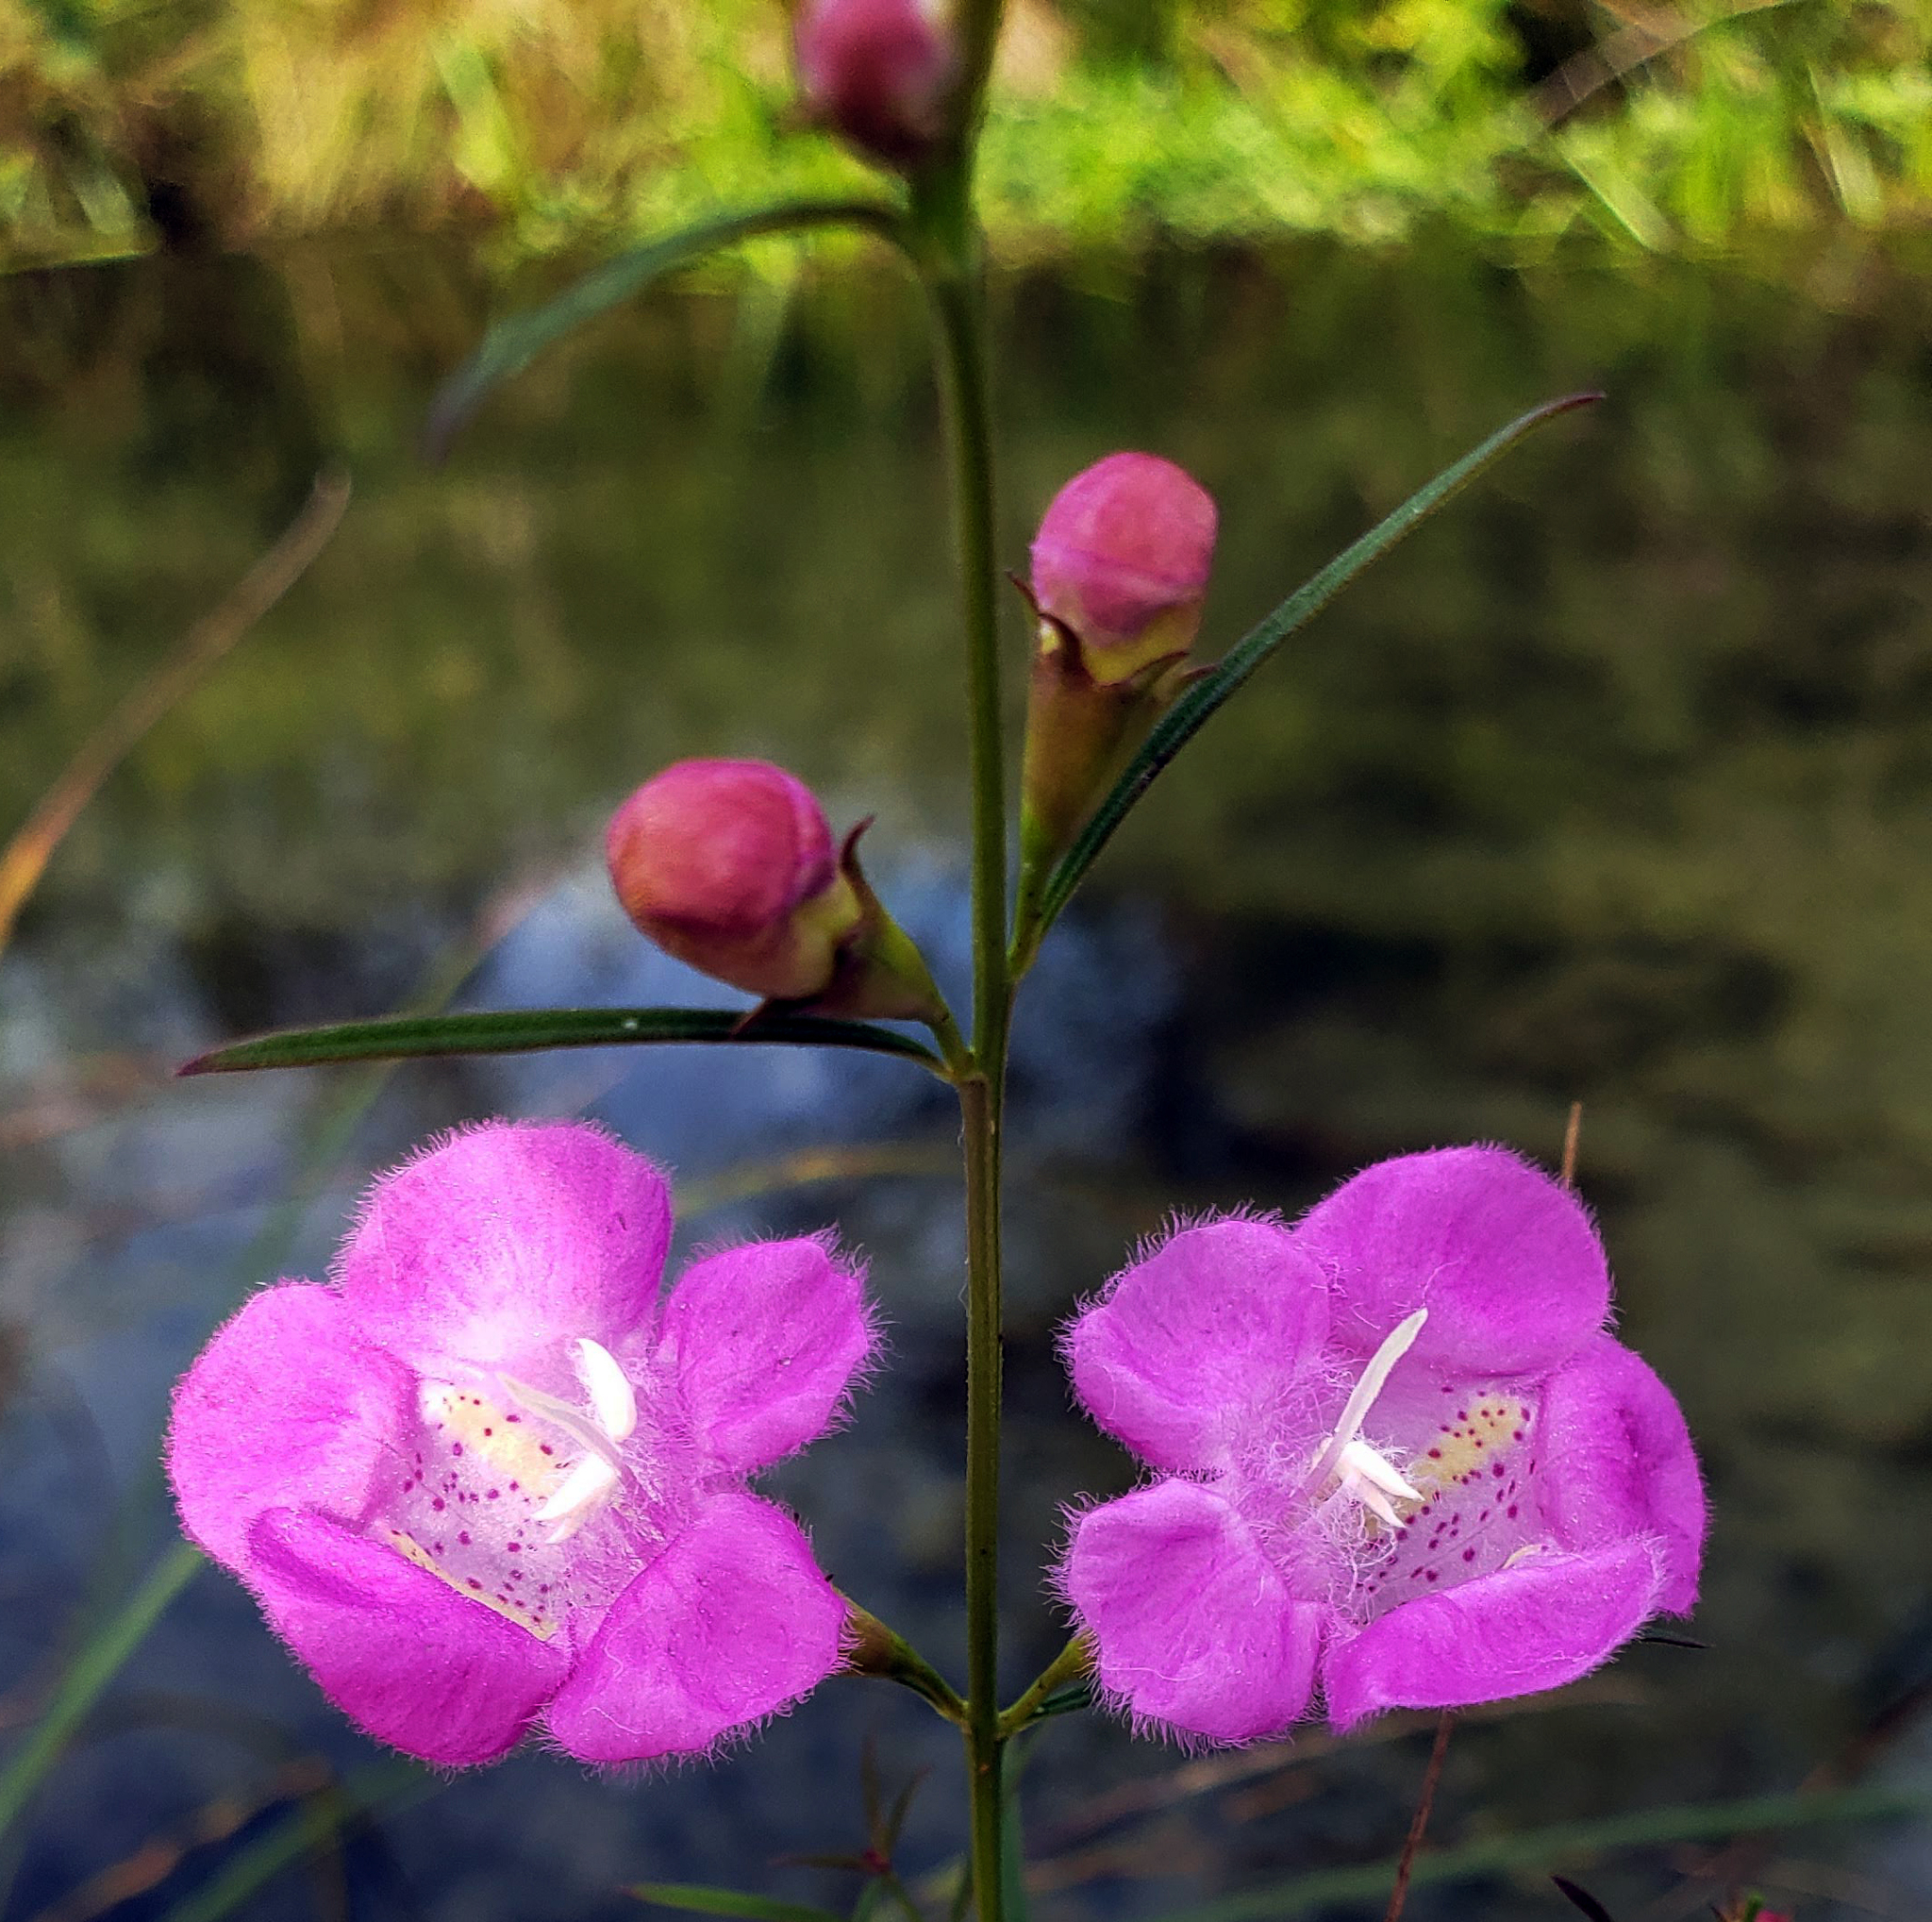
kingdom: Plantae
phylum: Tracheophyta
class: Magnoliopsida
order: Lamiales
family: Orobanchaceae
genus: Agalinis
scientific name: Agalinis purpurea
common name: Purple false foxglove
